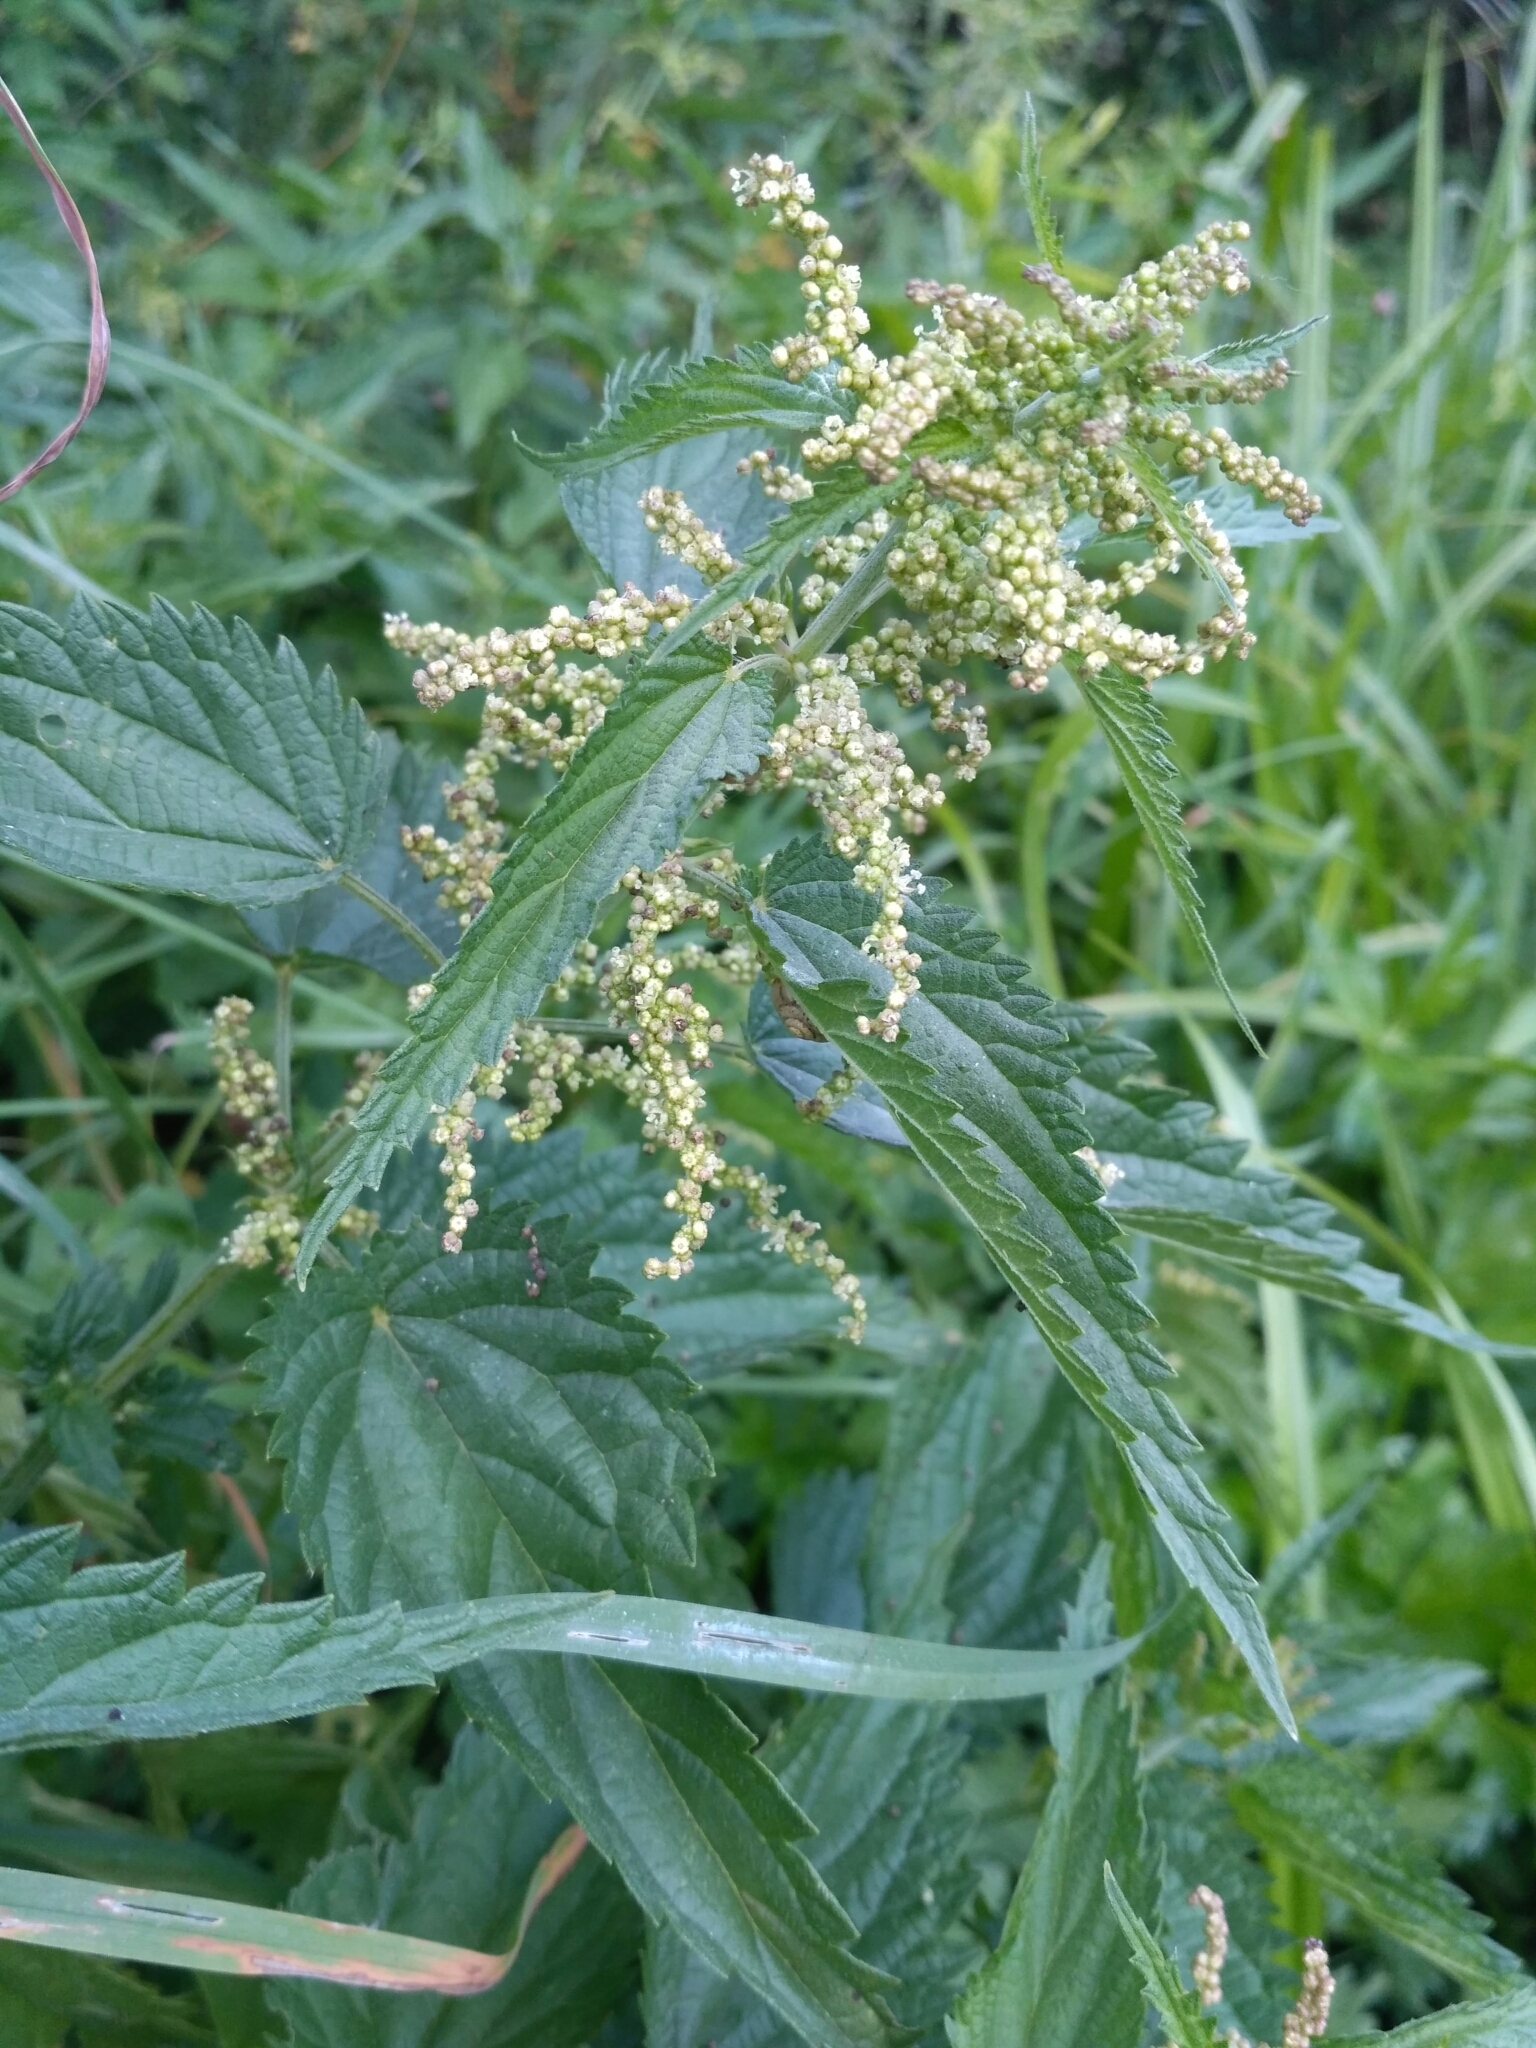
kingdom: Plantae
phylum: Tracheophyta
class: Magnoliopsida
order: Rosales
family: Urticaceae
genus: Urtica
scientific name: Urtica dioica
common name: Common nettle
